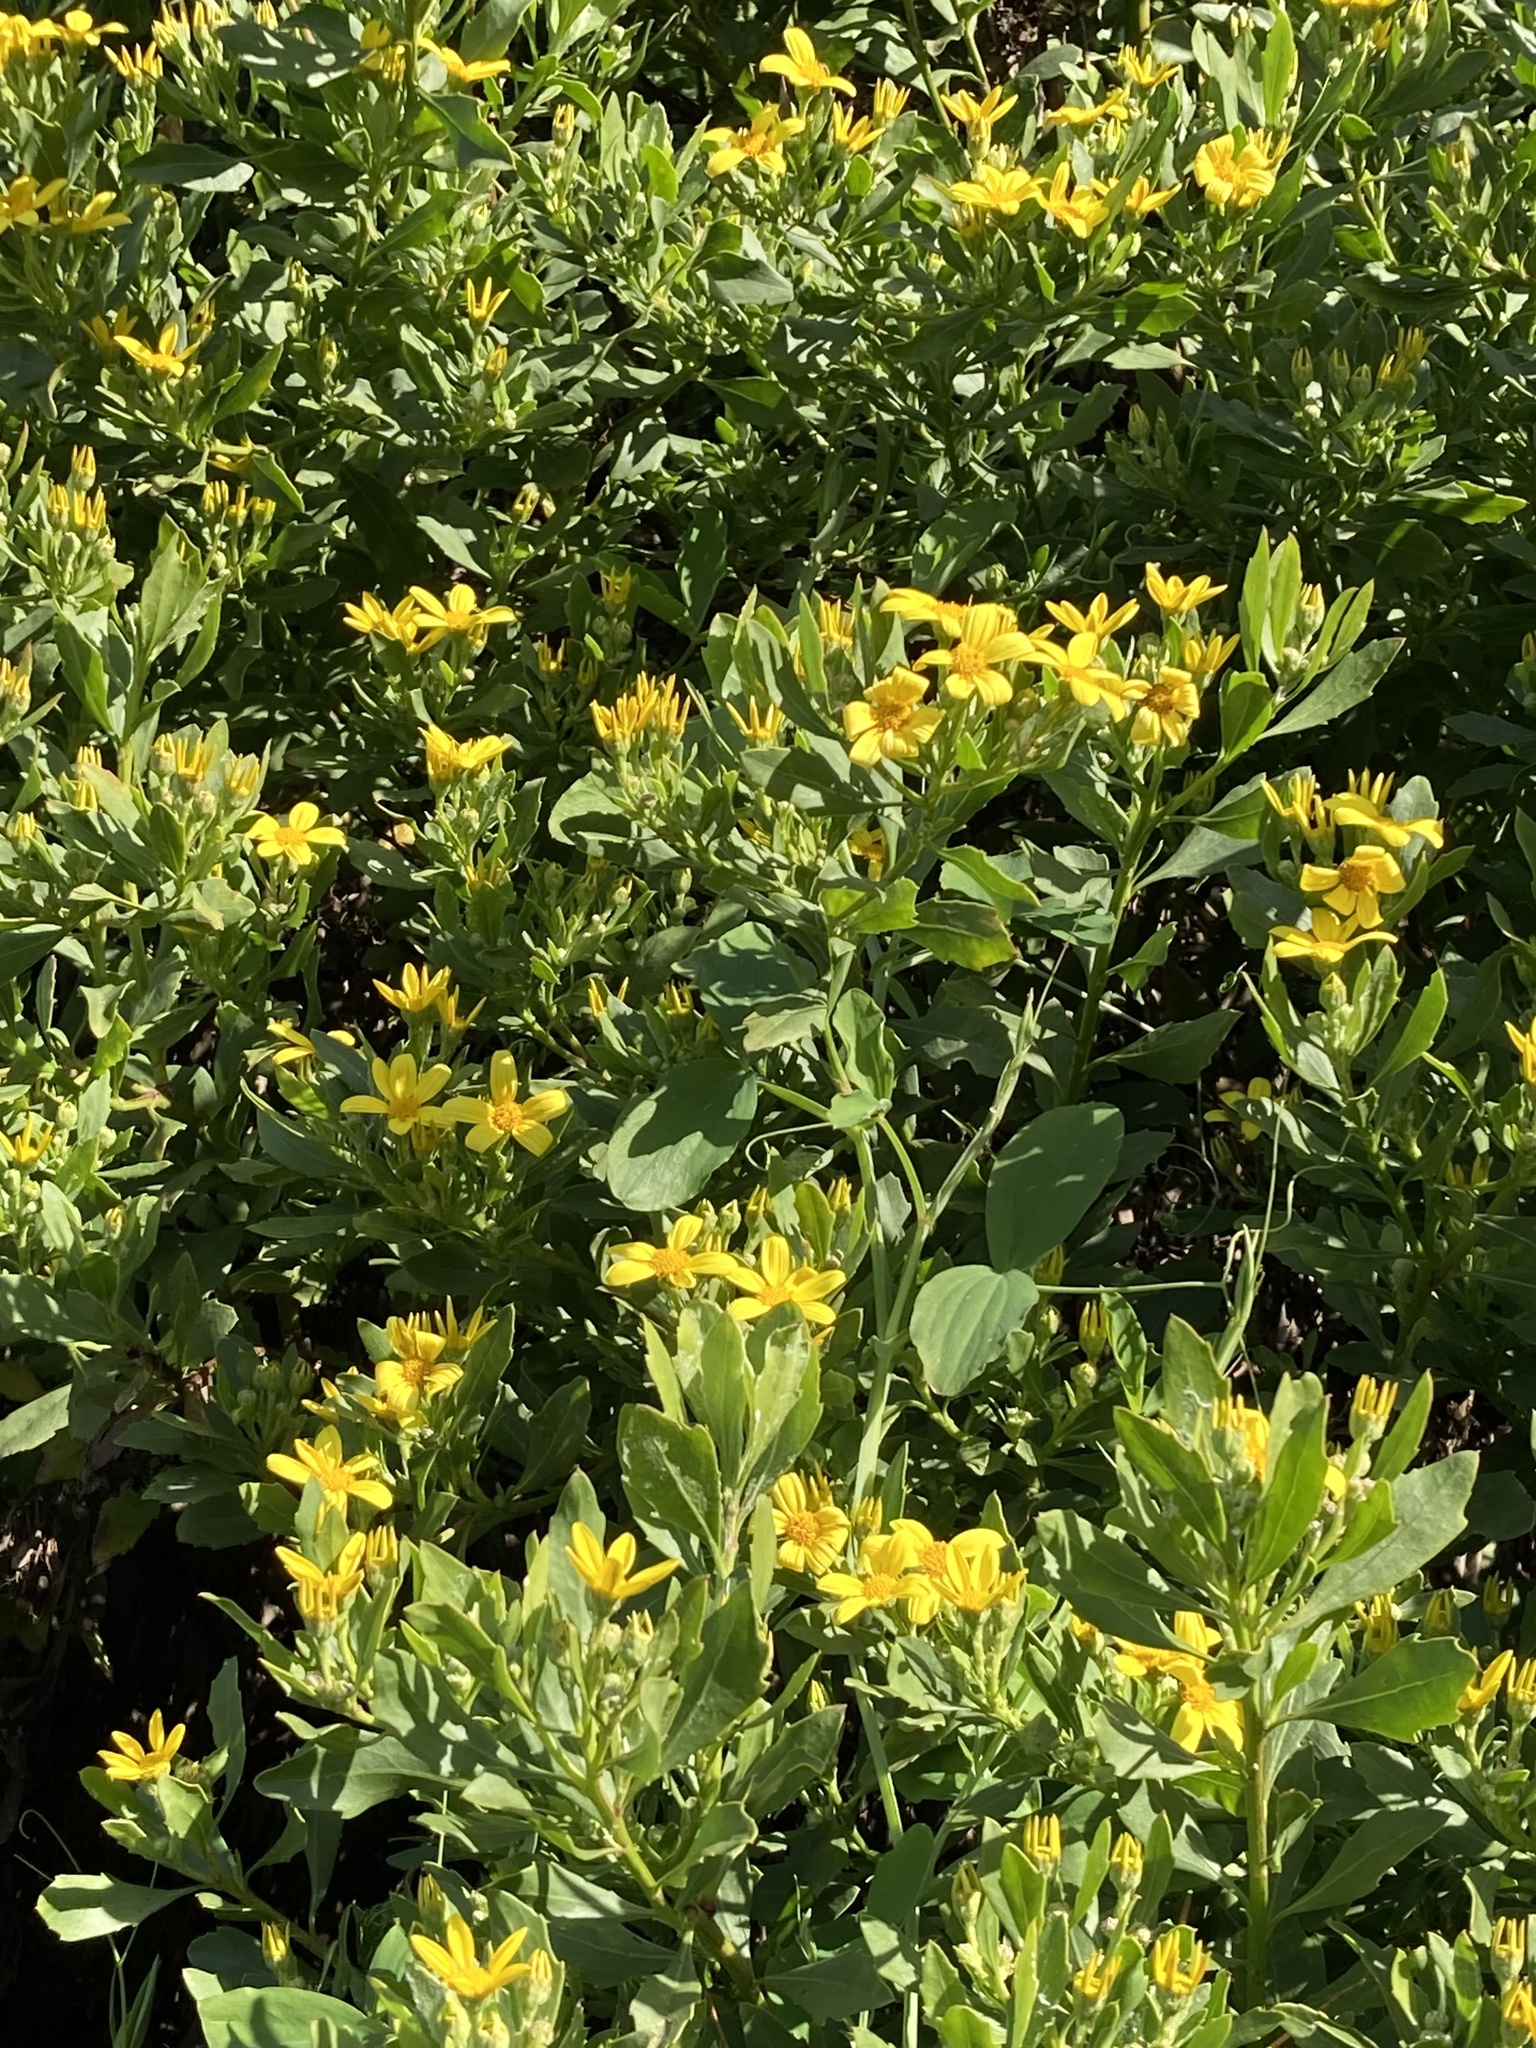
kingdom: Plantae
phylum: Tracheophyta
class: Magnoliopsida
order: Asterales
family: Asteraceae
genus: Osteospermum
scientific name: Osteospermum moniliferum
